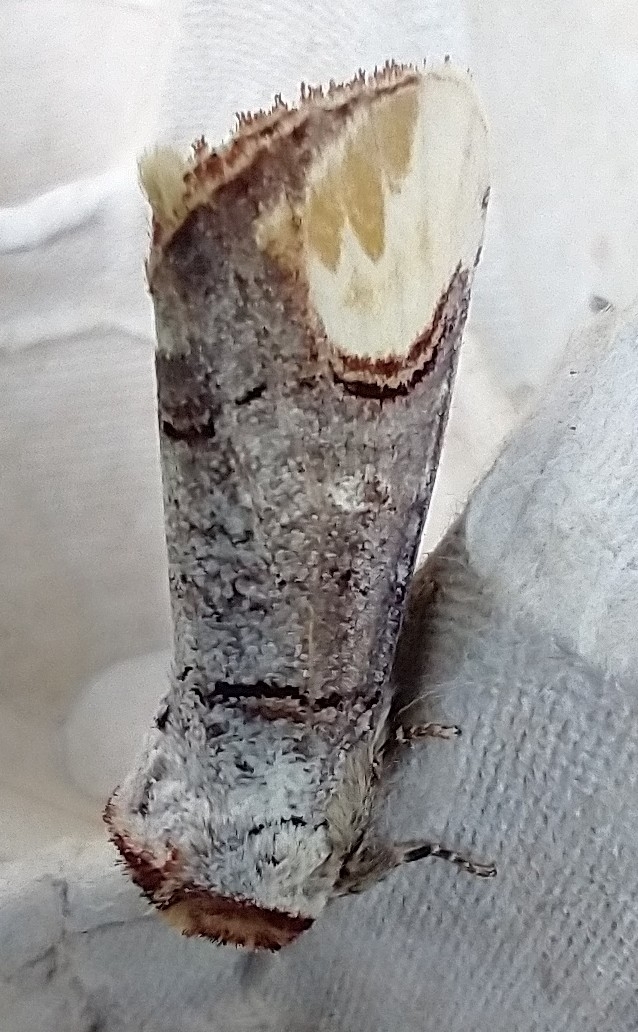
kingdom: Animalia
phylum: Arthropoda
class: Insecta
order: Lepidoptera
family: Notodontidae
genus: Phalera
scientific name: Phalera bucephala
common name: Buff-tip
